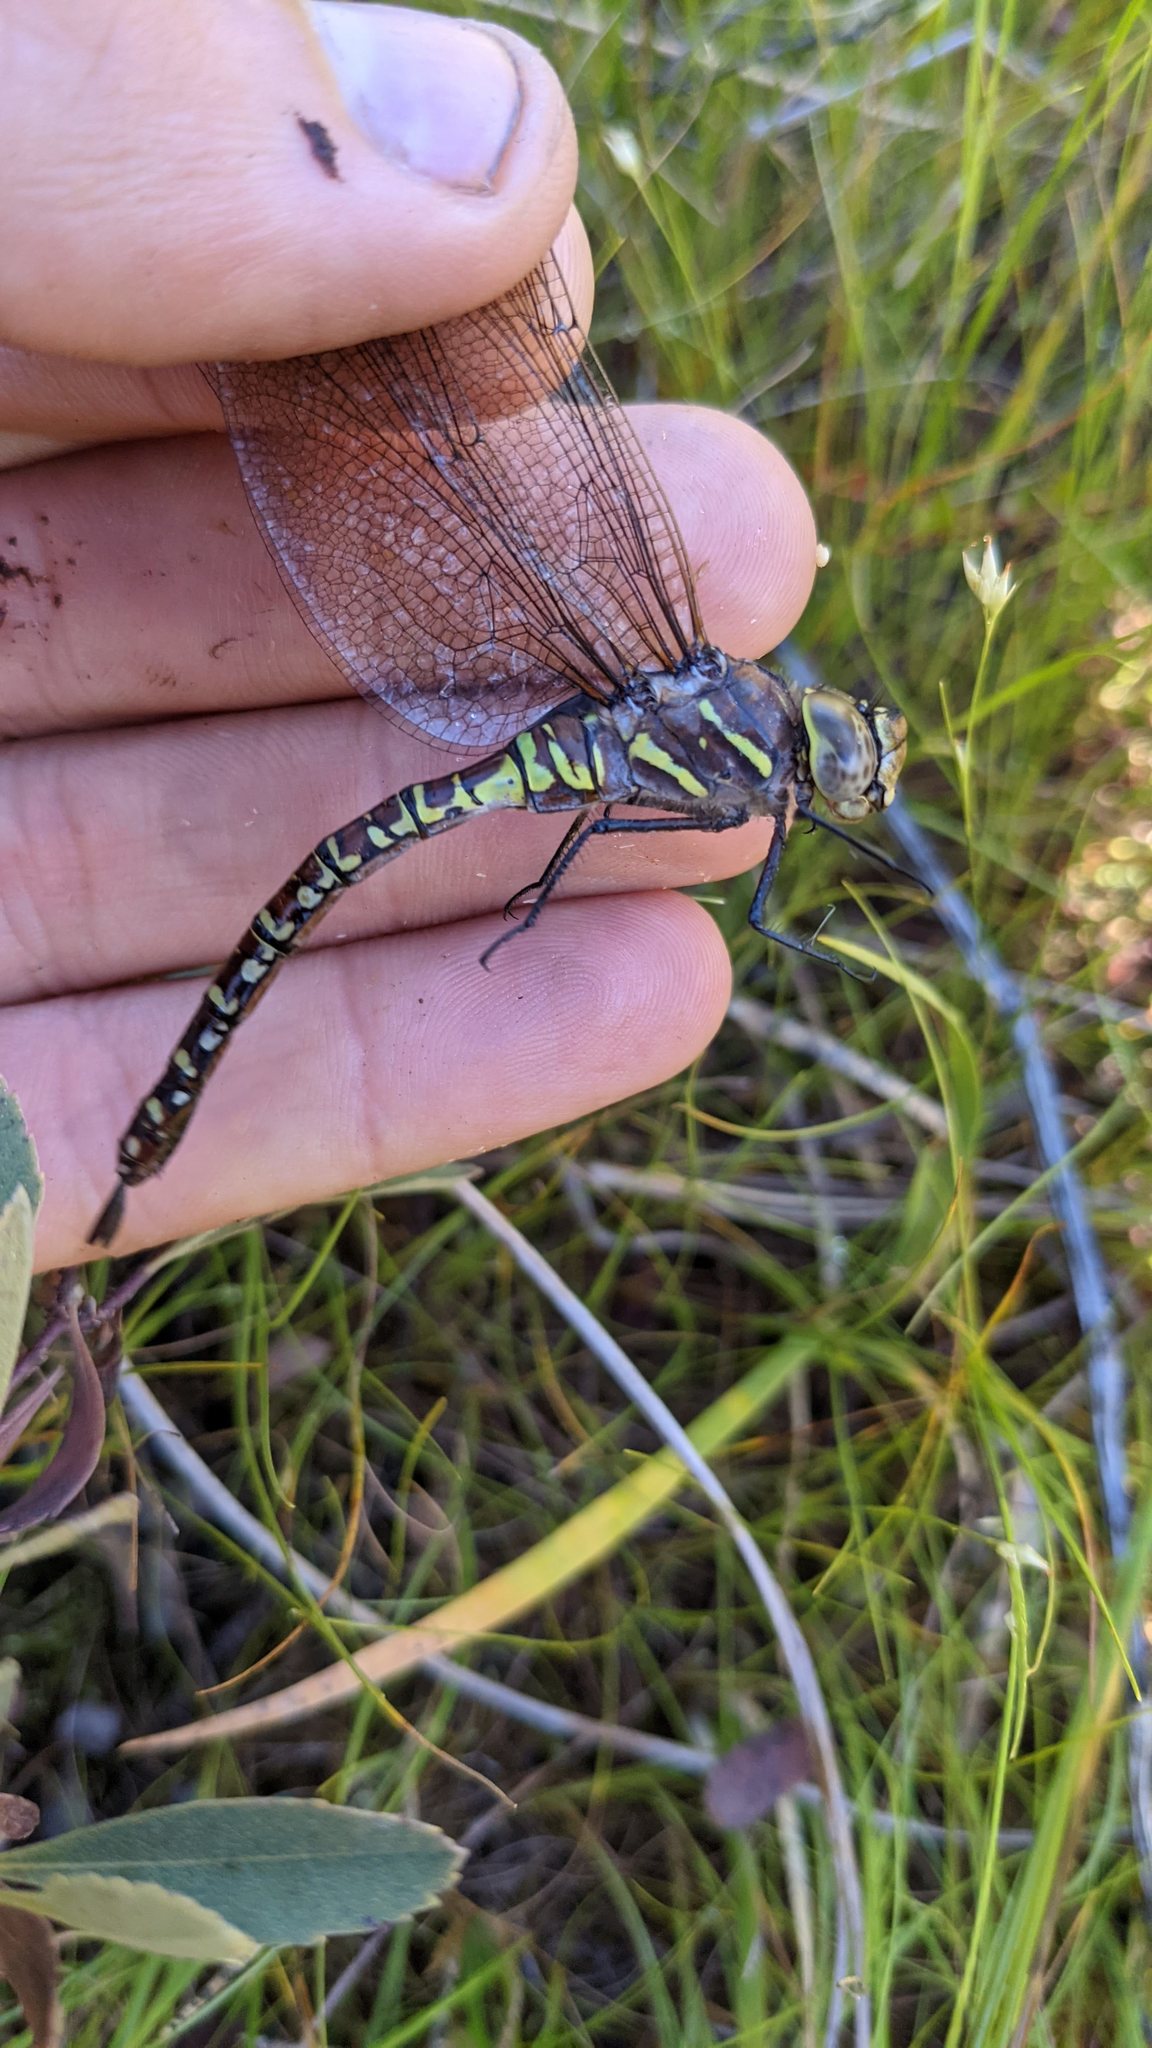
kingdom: Animalia
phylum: Arthropoda
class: Insecta
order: Odonata
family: Aeshnidae
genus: Aeshna
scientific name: Aeshna interrupta
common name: Variable darner
